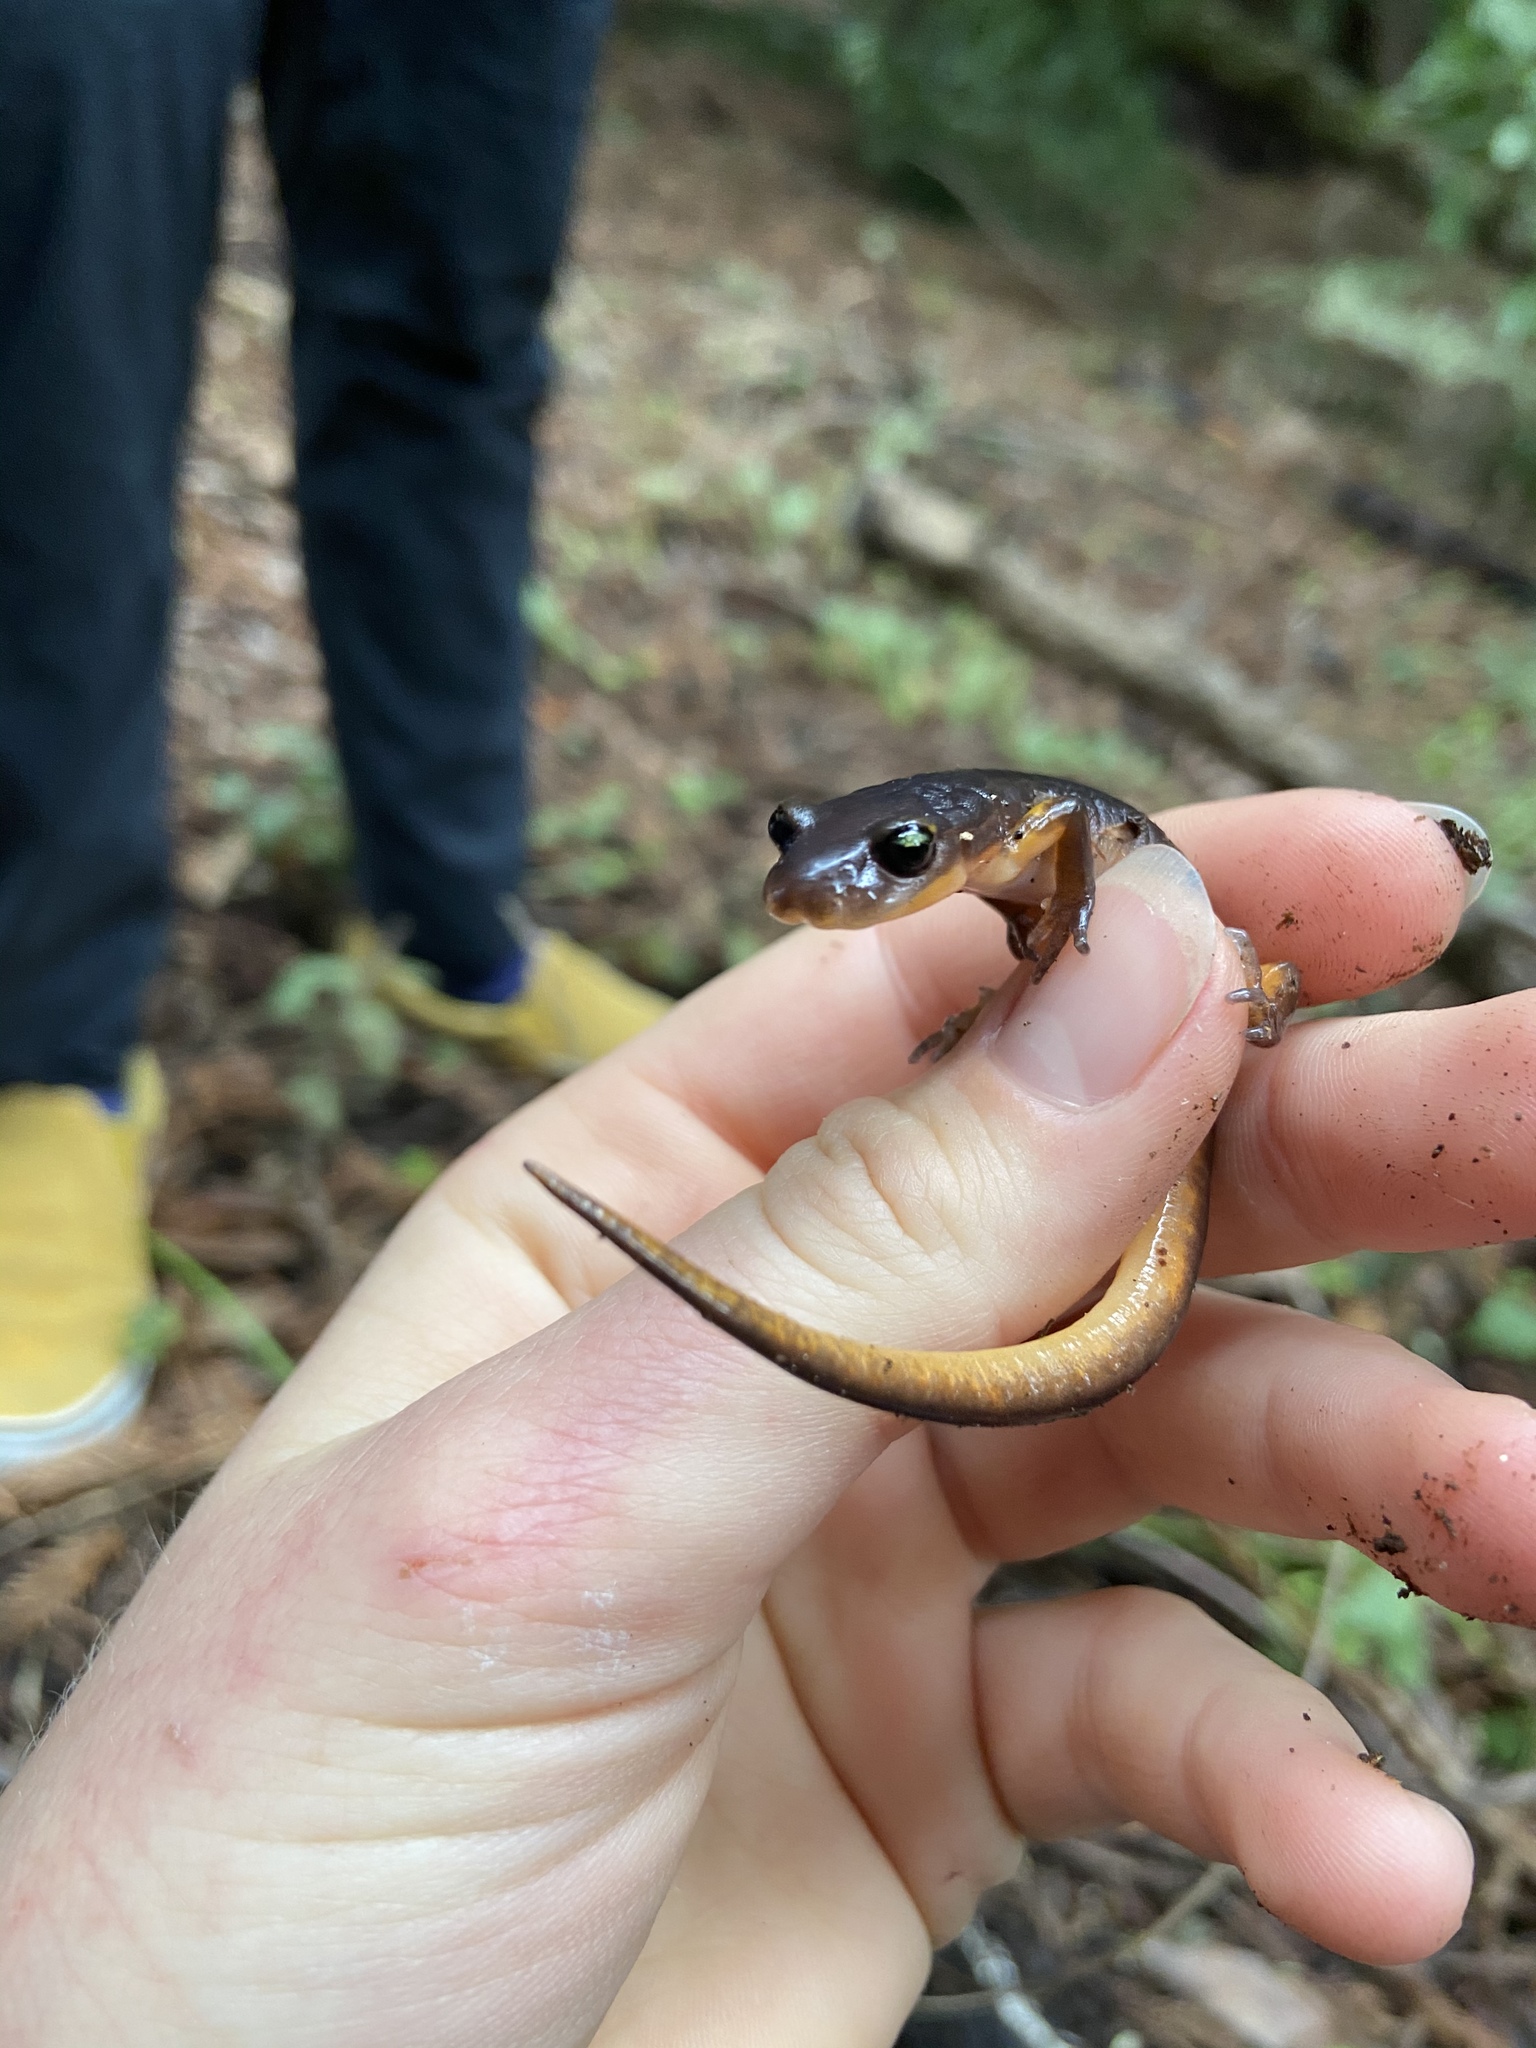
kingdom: Animalia
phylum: Chordata
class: Amphibia
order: Caudata
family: Plethodontidae
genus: Ensatina
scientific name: Ensatina eschscholtzii
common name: Ensatina
